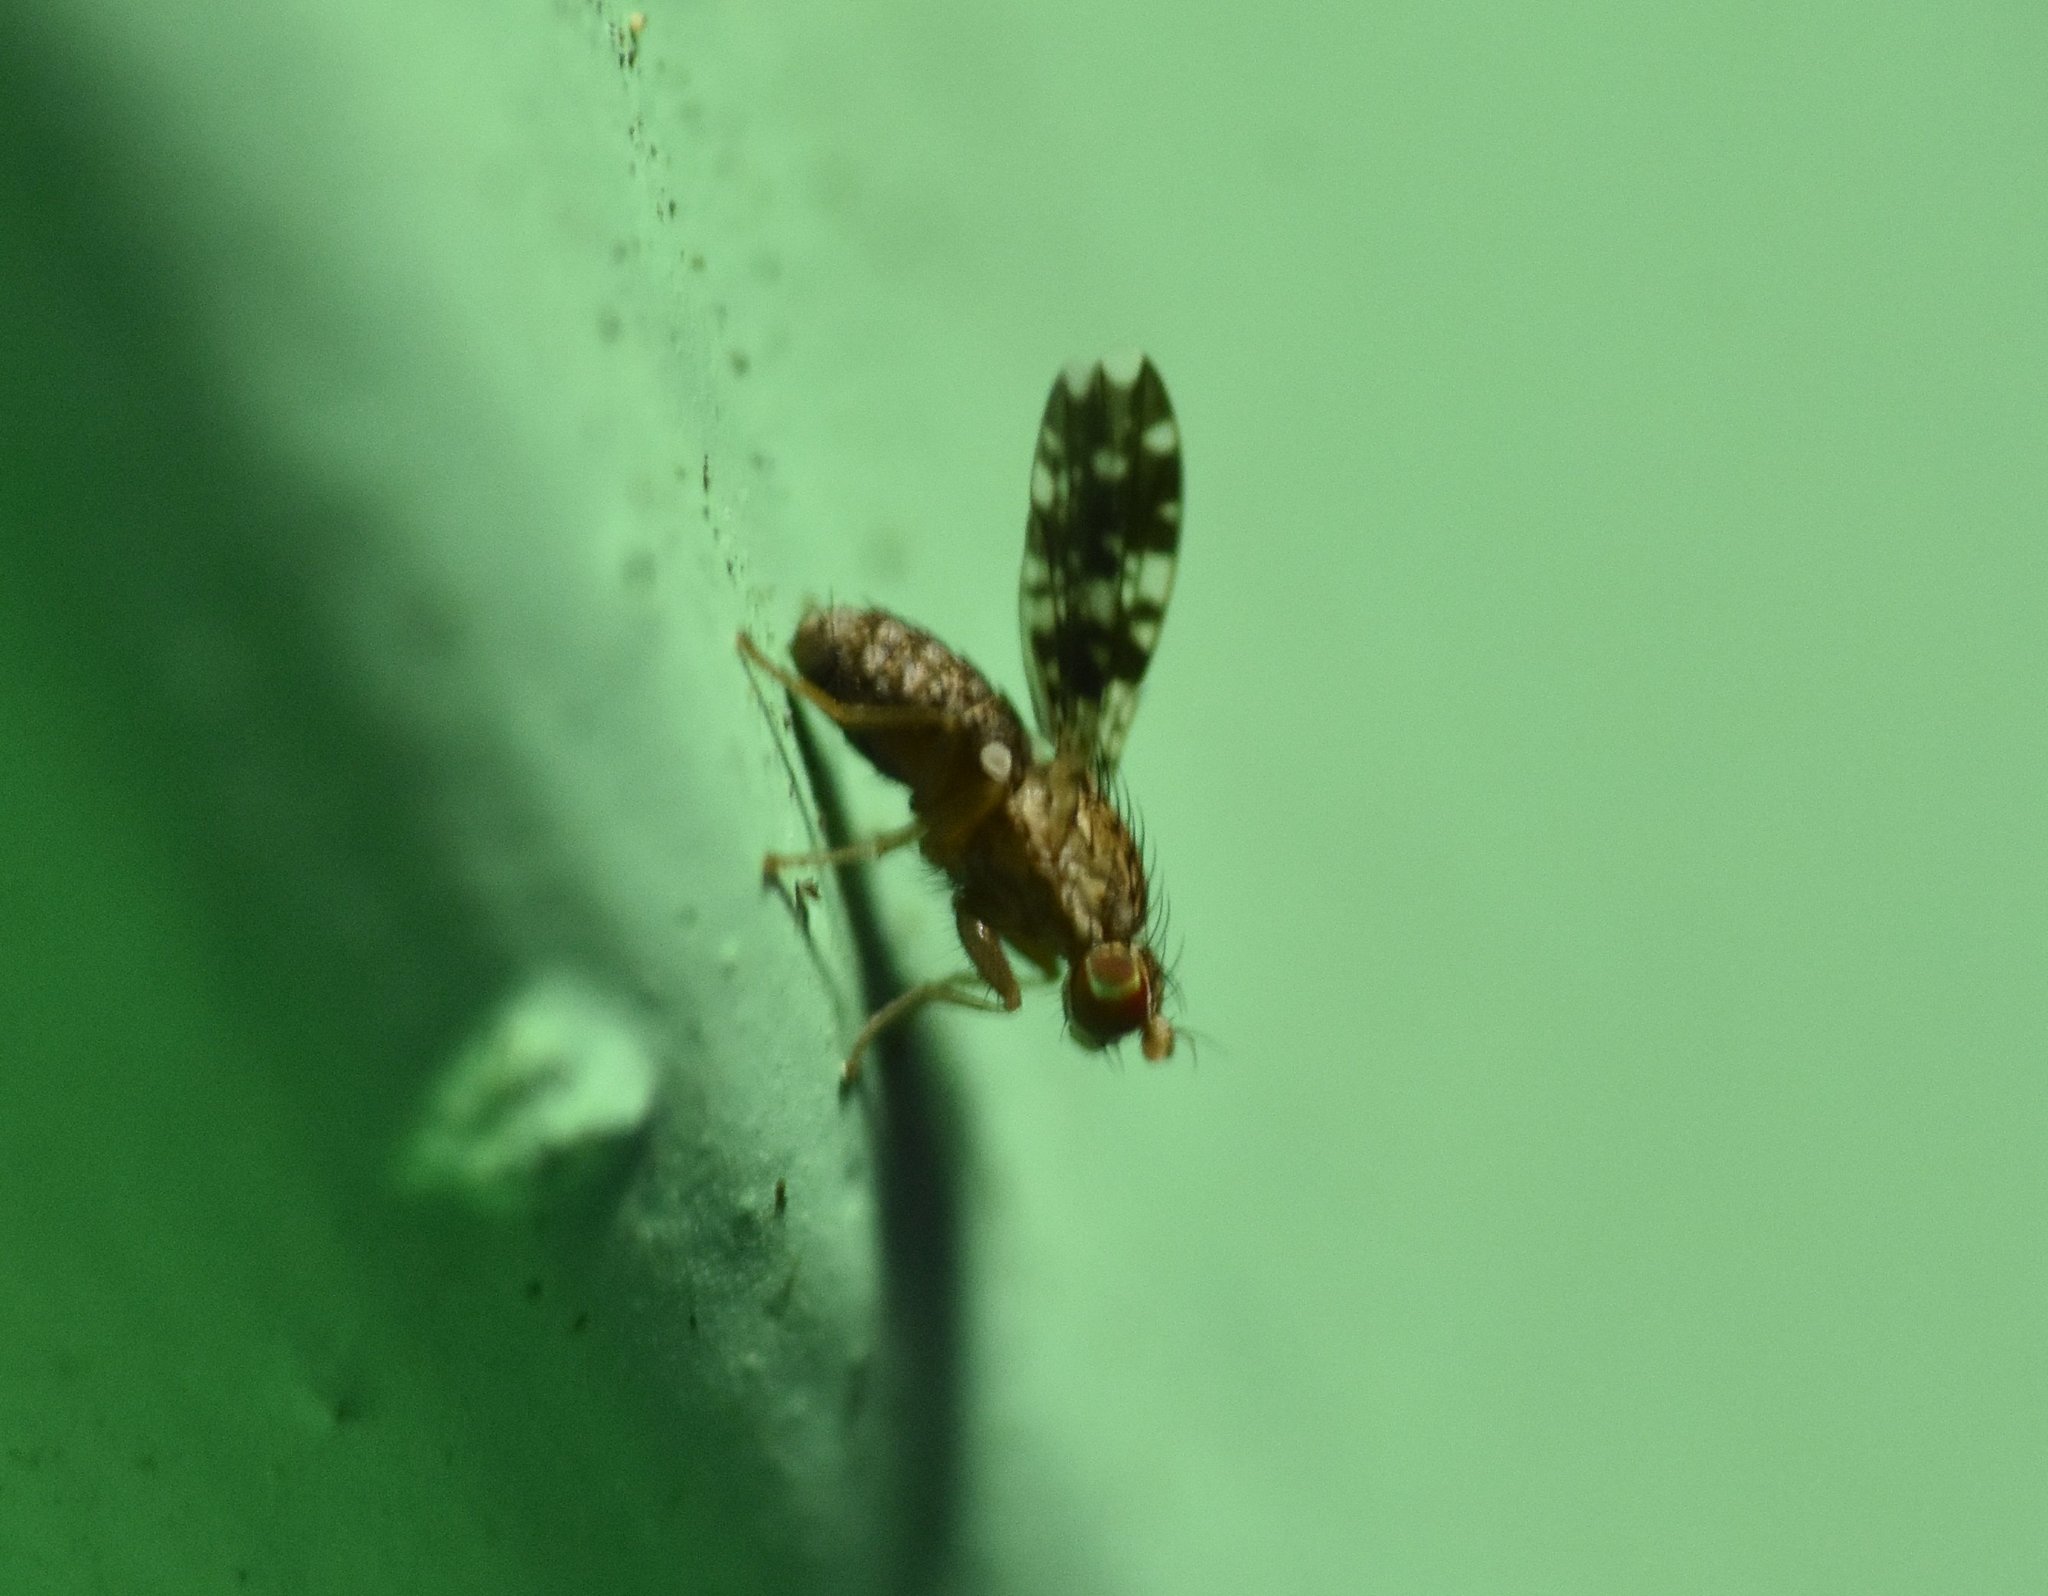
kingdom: Animalia
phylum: Arthropoda
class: Insecta
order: Diptera
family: Heleomyzidae
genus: Trixoscelis
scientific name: Trixoscelis ornata
